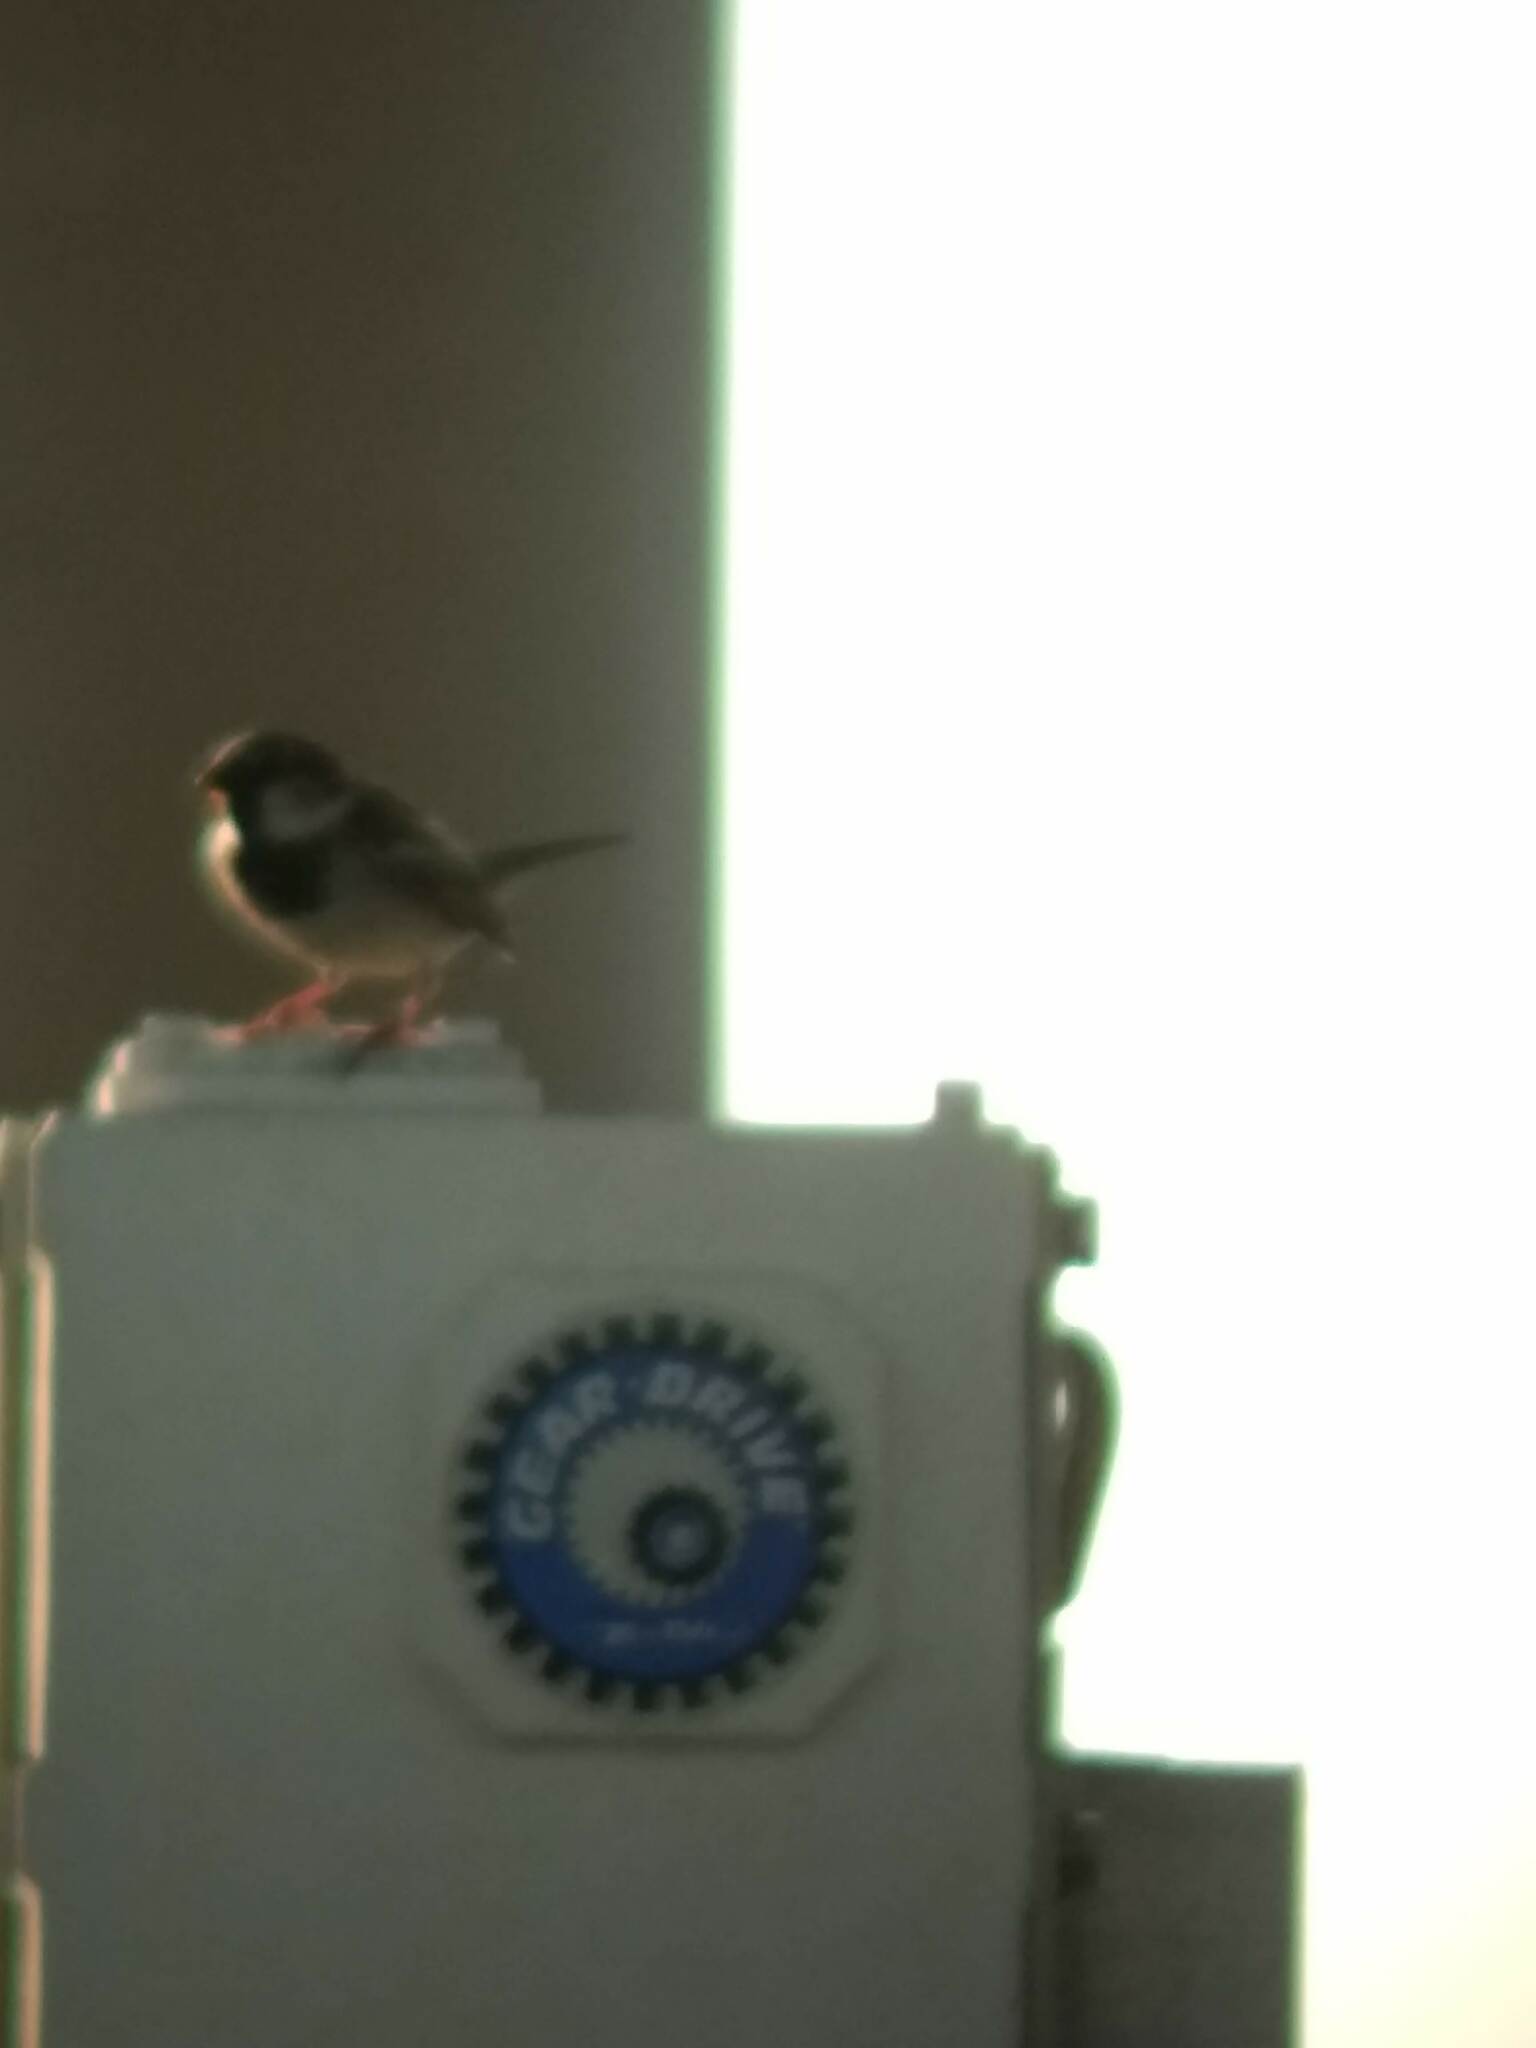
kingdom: Animalia
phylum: Chordata
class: Aves
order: Passeriformes
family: Passeridae
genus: Passer
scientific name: Passer domesticus
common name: House sparrow
